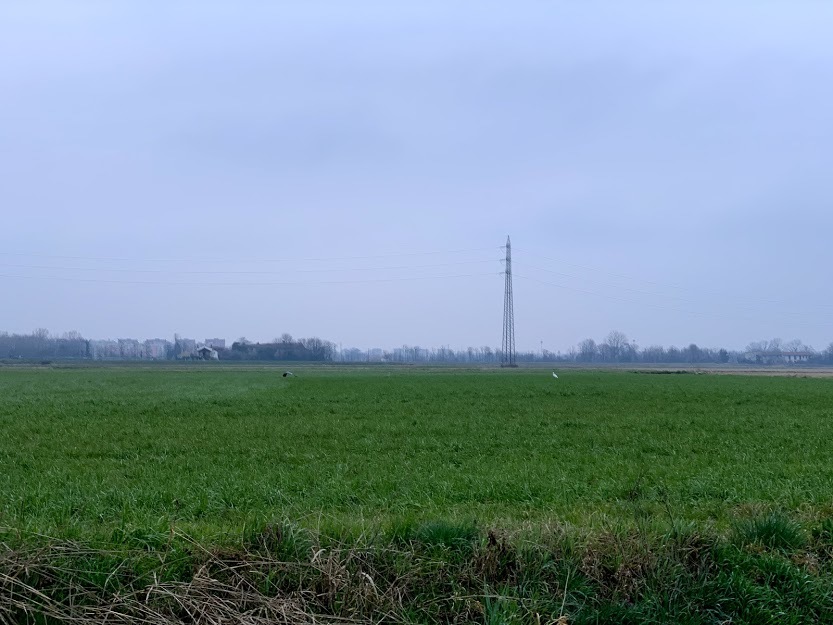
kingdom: Animalia
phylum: Chordata
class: Aves
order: Pelecaniformes
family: Ardeidae
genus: Ardea
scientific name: Ardea cinerea
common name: Grey heron
